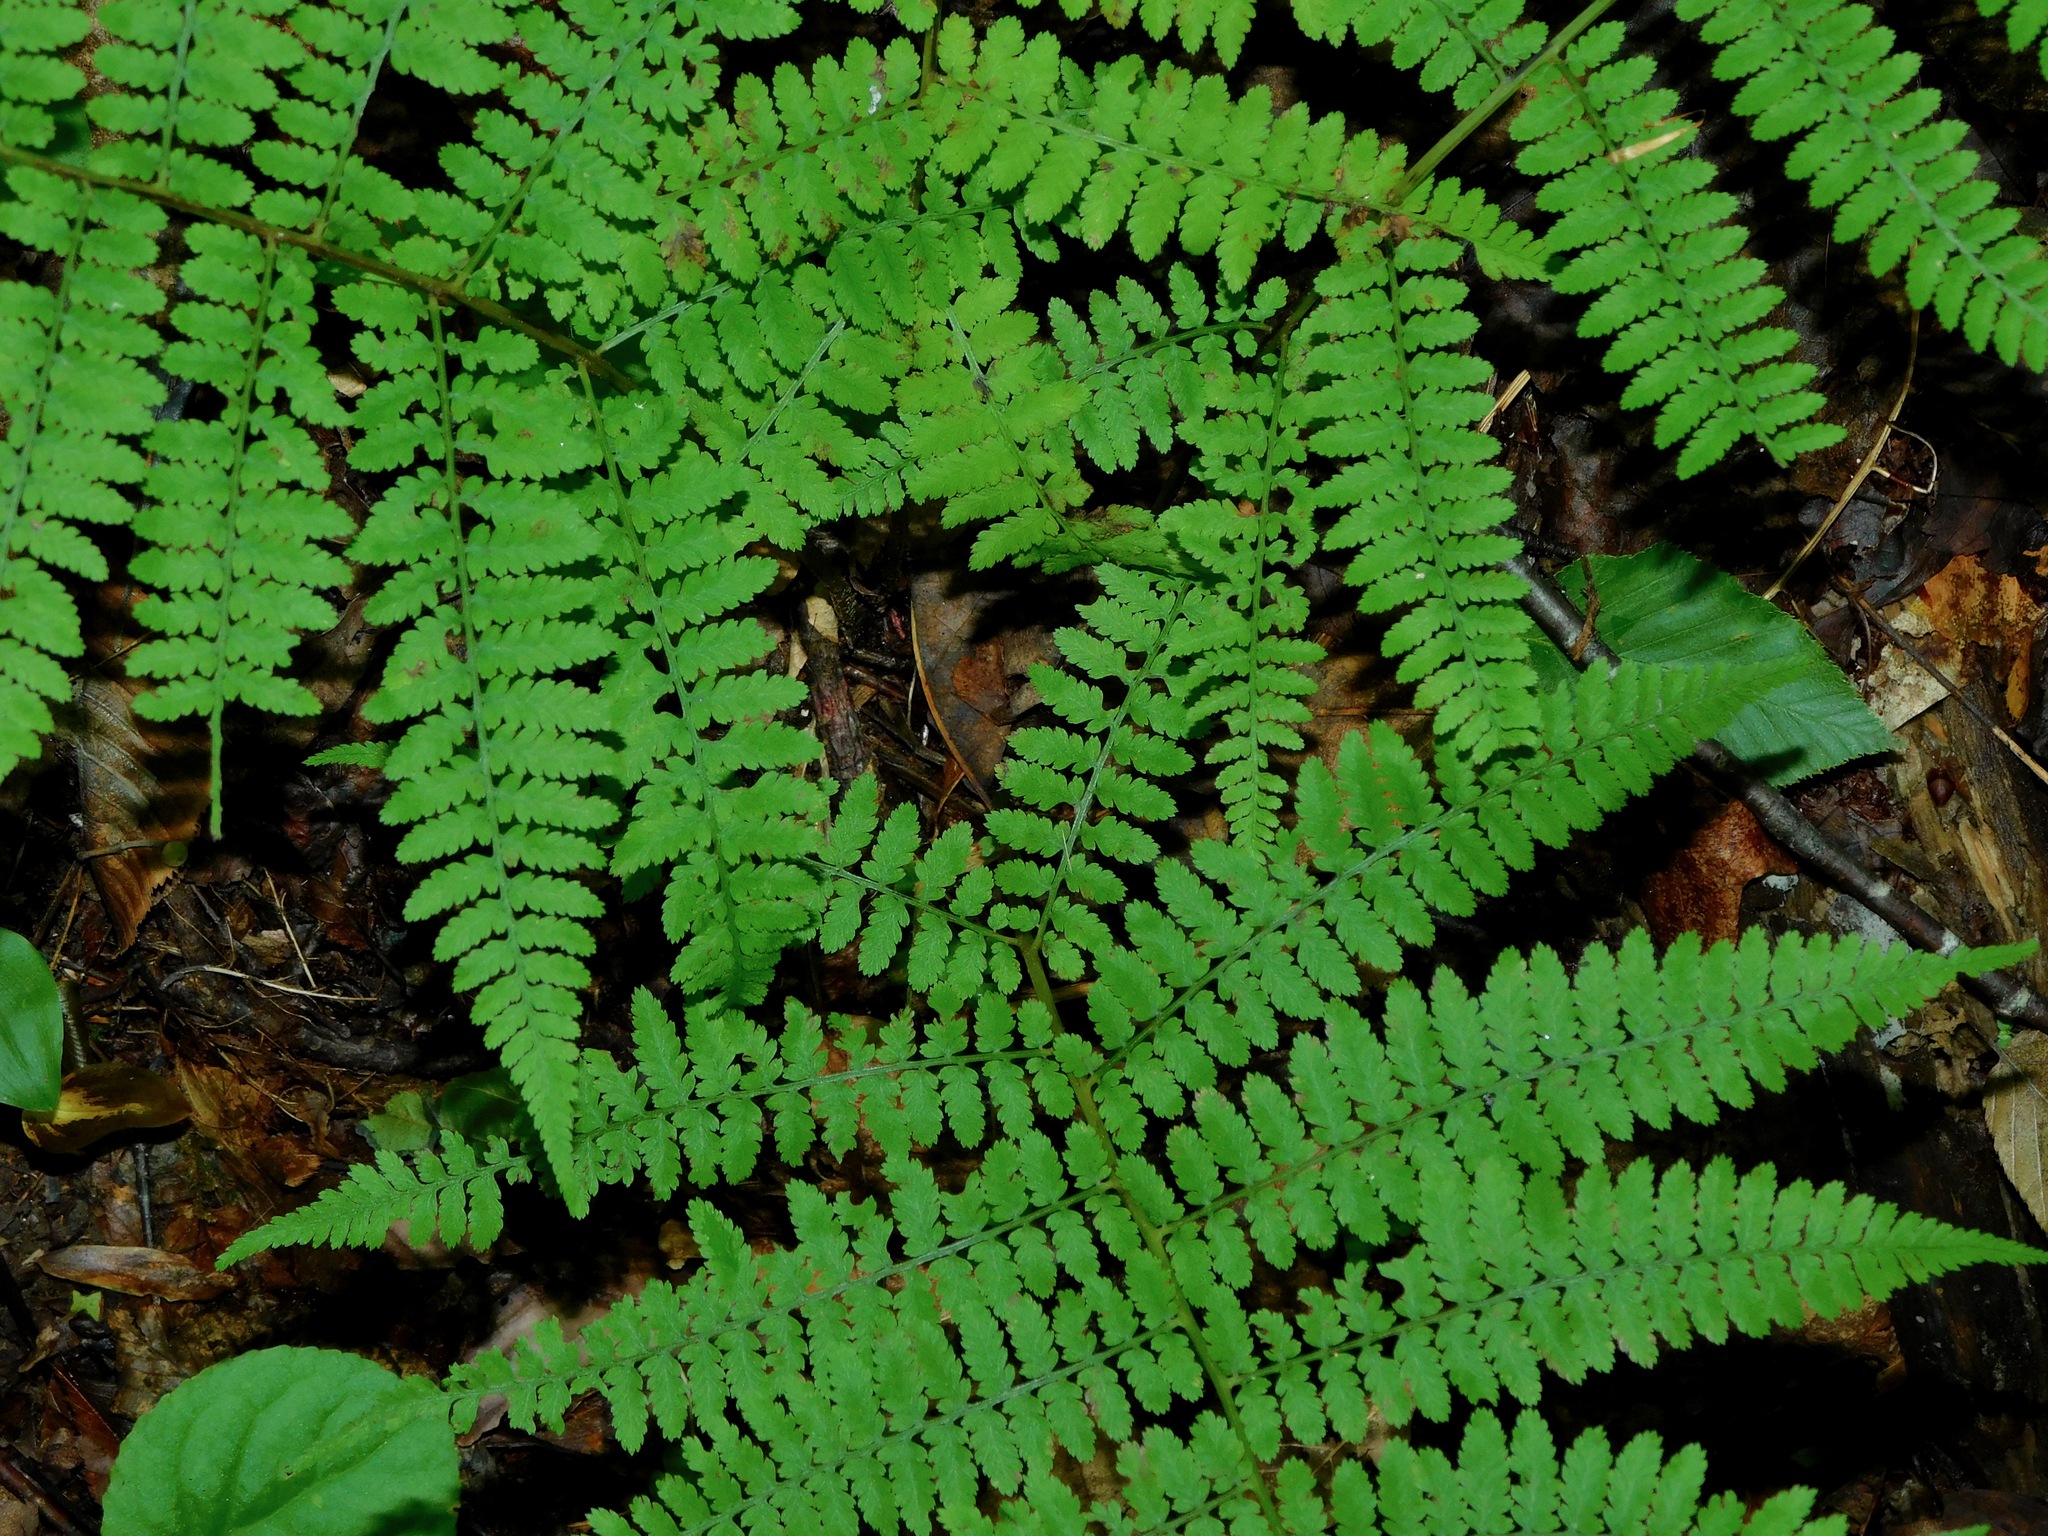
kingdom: Plantae
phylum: Tracheophyta
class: Polypodiopsida
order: Polypodiales
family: Athyriaceae
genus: Athyrium
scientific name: Athyrium asplenioides
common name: Southern lady fern
